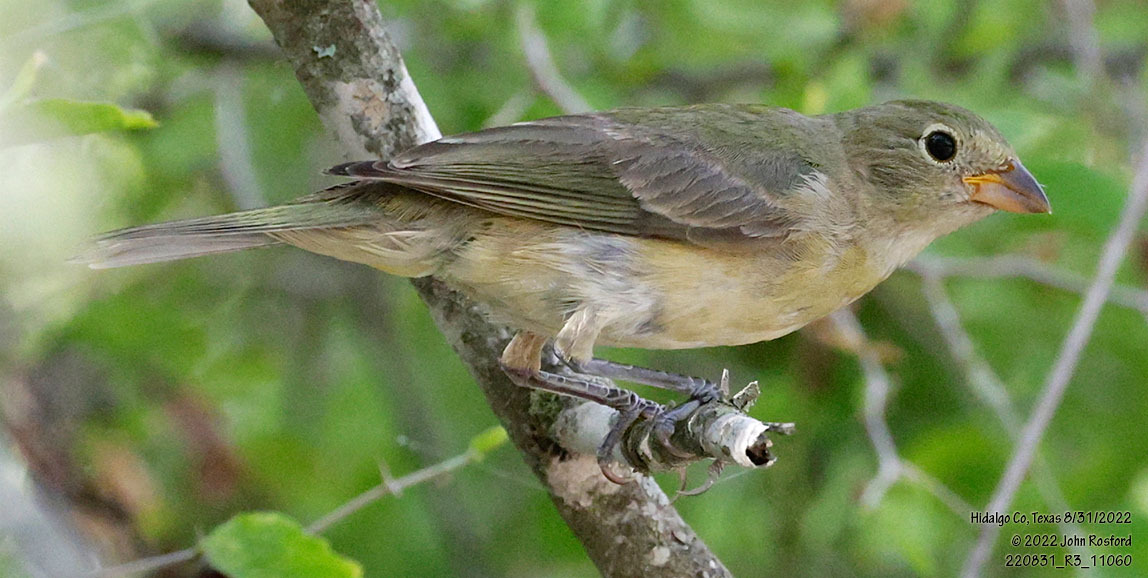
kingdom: Animalia
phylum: Chordata
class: Aves
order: Passeriformes
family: Cardinalidae
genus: Passerina
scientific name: Passerina ciris
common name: Painted bunting
